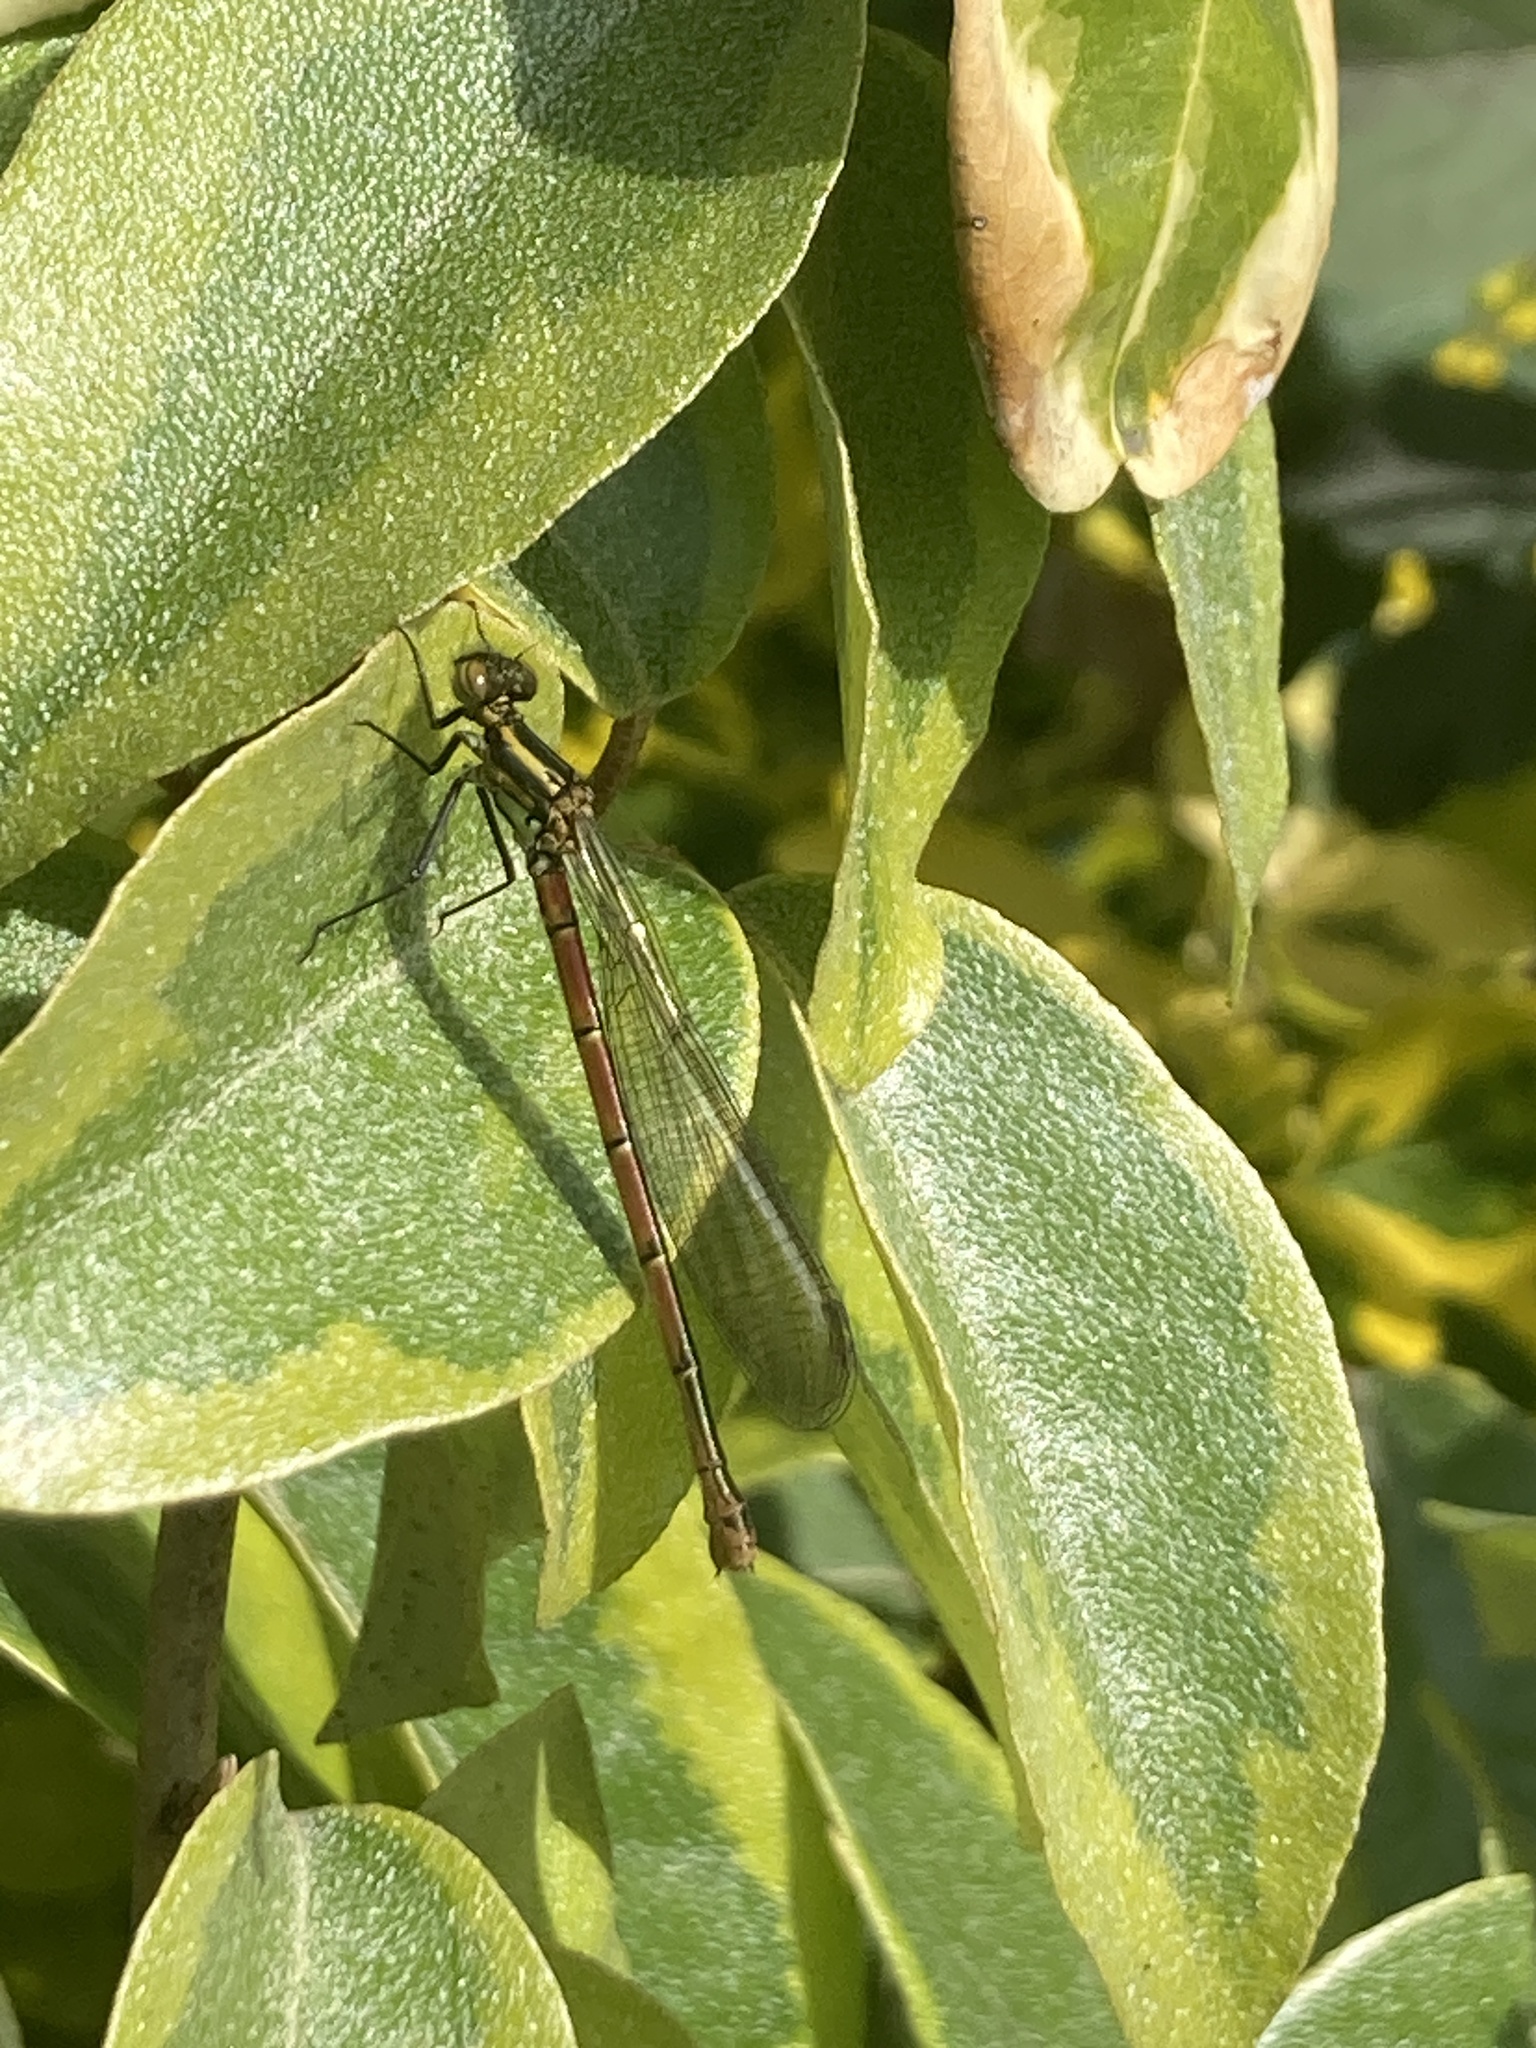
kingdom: Animalia
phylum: Arthropoda
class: Insecta
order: Odonata
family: Coenagrionidae
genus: Pyrrhosoma
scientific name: Pyrrhosoma nymphula
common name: Large red damsel
